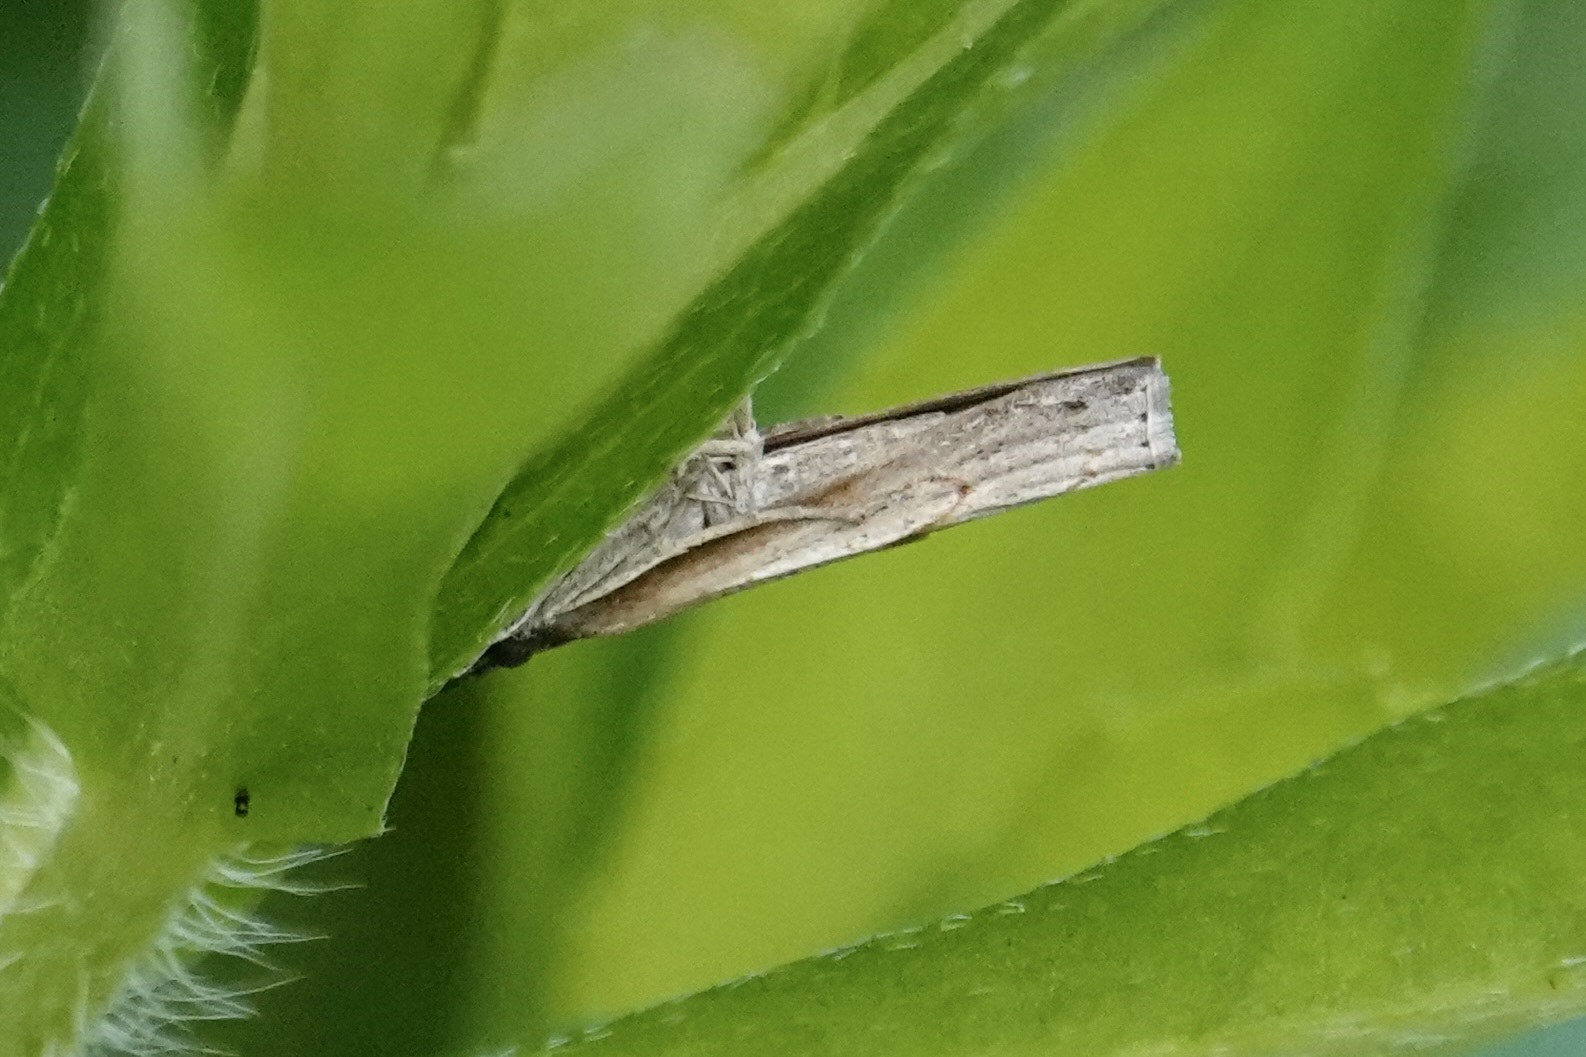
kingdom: Animalia
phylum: Arthropoda
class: Insecta
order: Lepidoptera
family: Crambidae
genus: Microcrambus
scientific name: Microcrambus elegans
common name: Elegant grass-veneer
